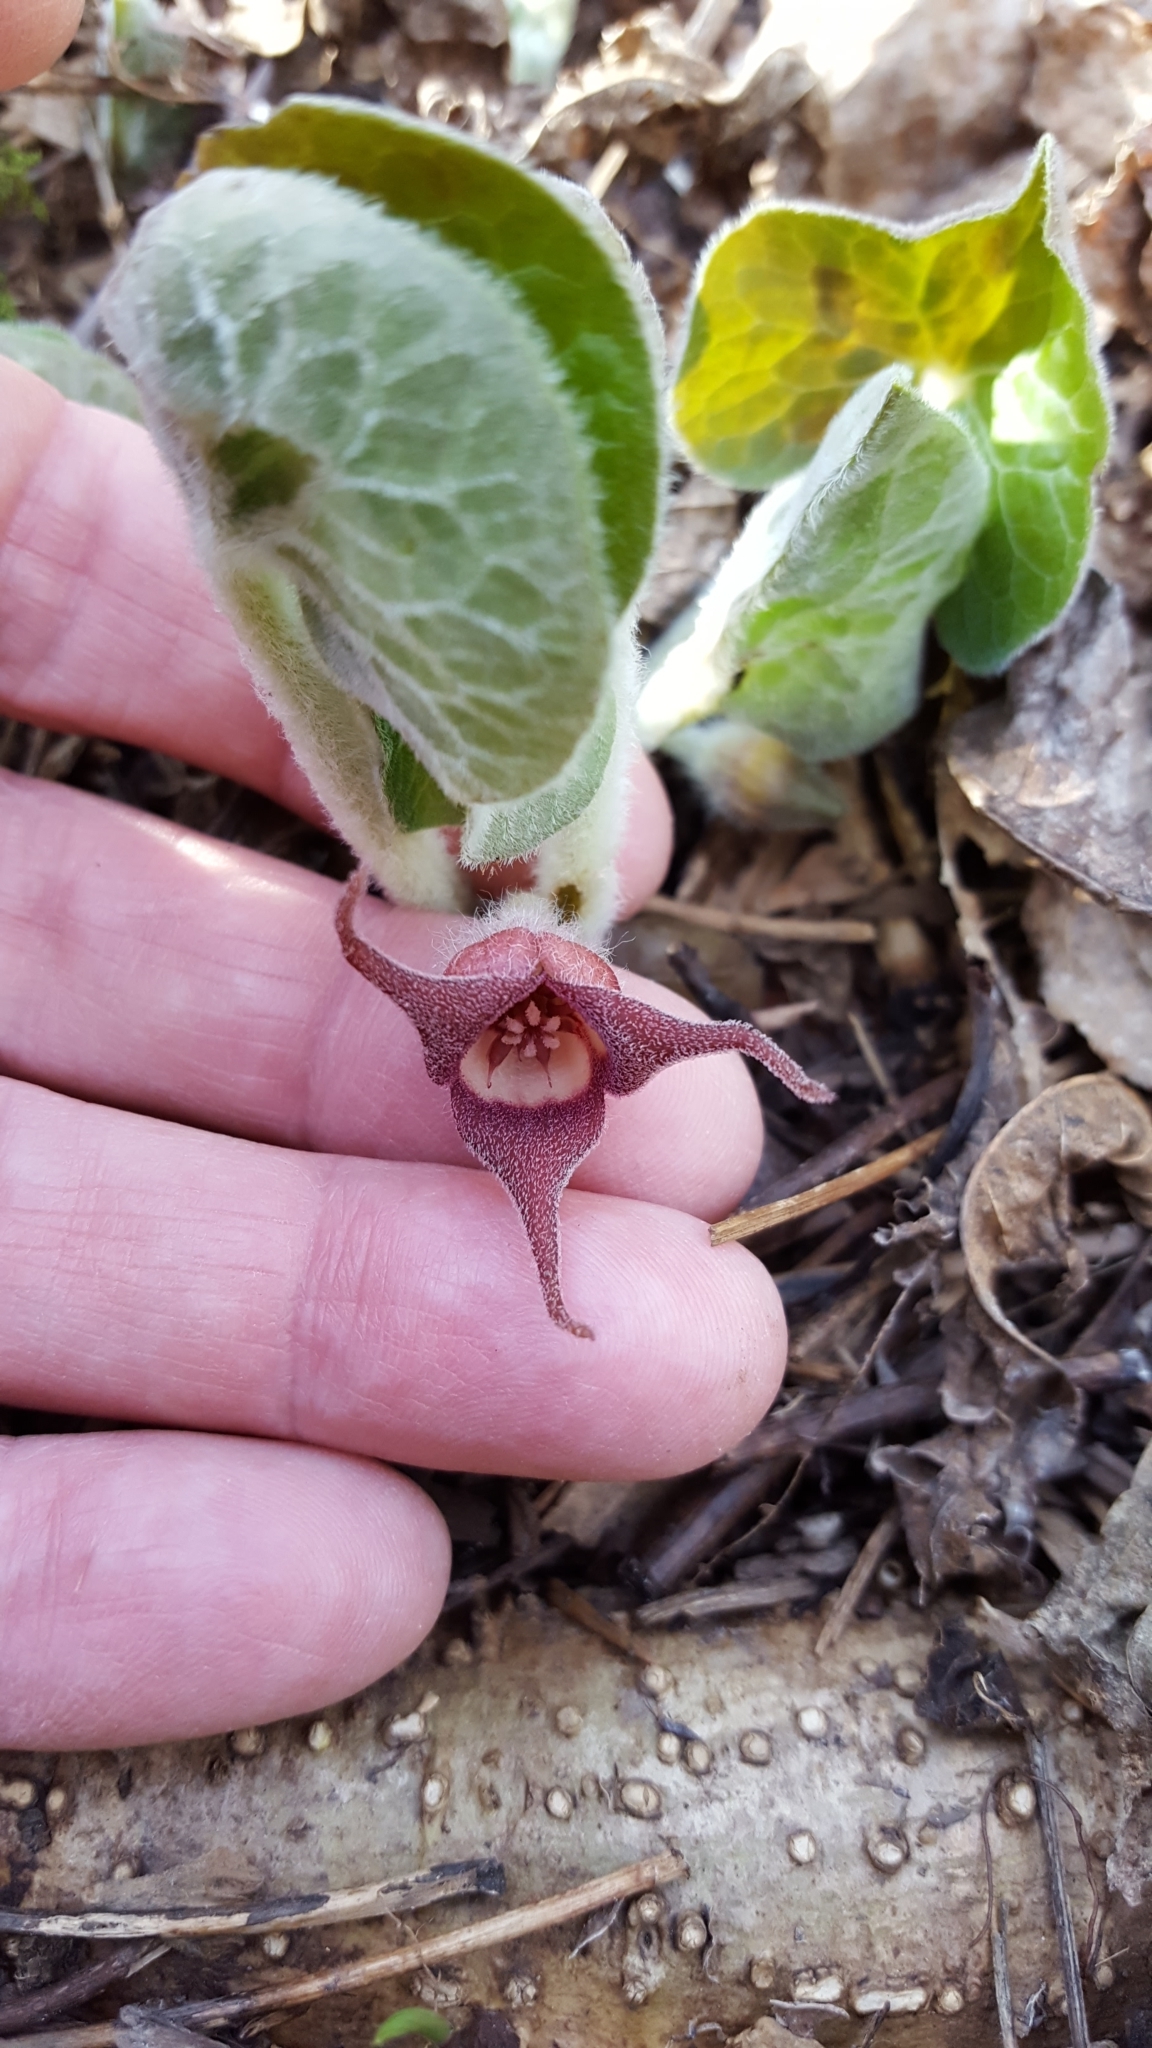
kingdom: Plantae
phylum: Tracheophyta
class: Magnoliopsida
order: Piperales
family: Aristolochiaceae
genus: Asarum
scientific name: Asarum canadense
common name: Wild ginger
